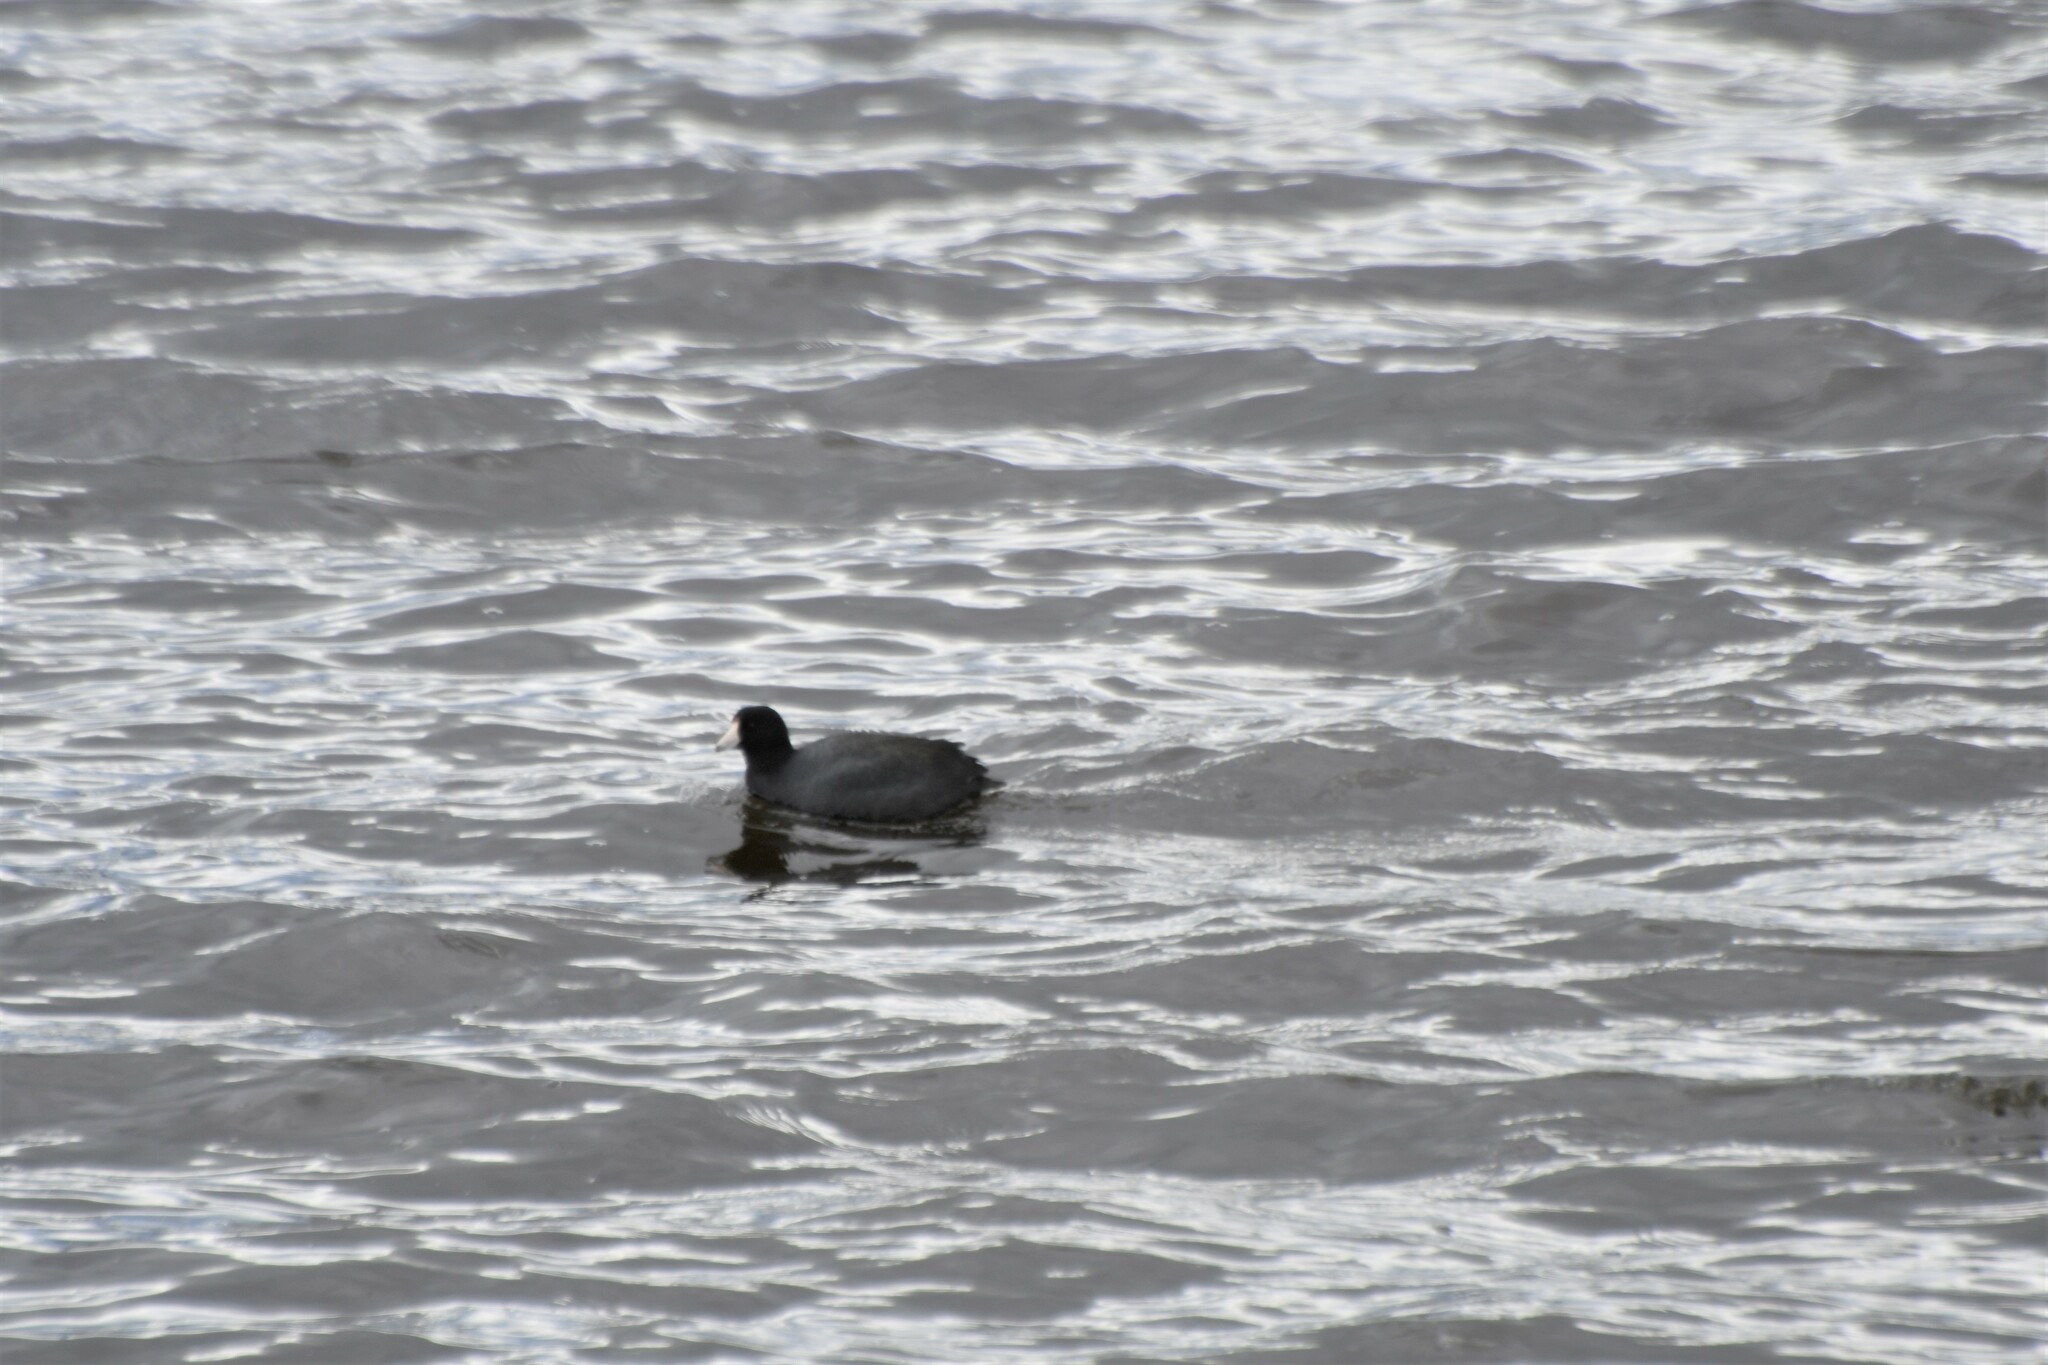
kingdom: Animalia
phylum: Chordata
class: Aves
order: Gruiformes
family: Rallidae
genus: Fulica
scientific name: Fulica americana
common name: American coot
